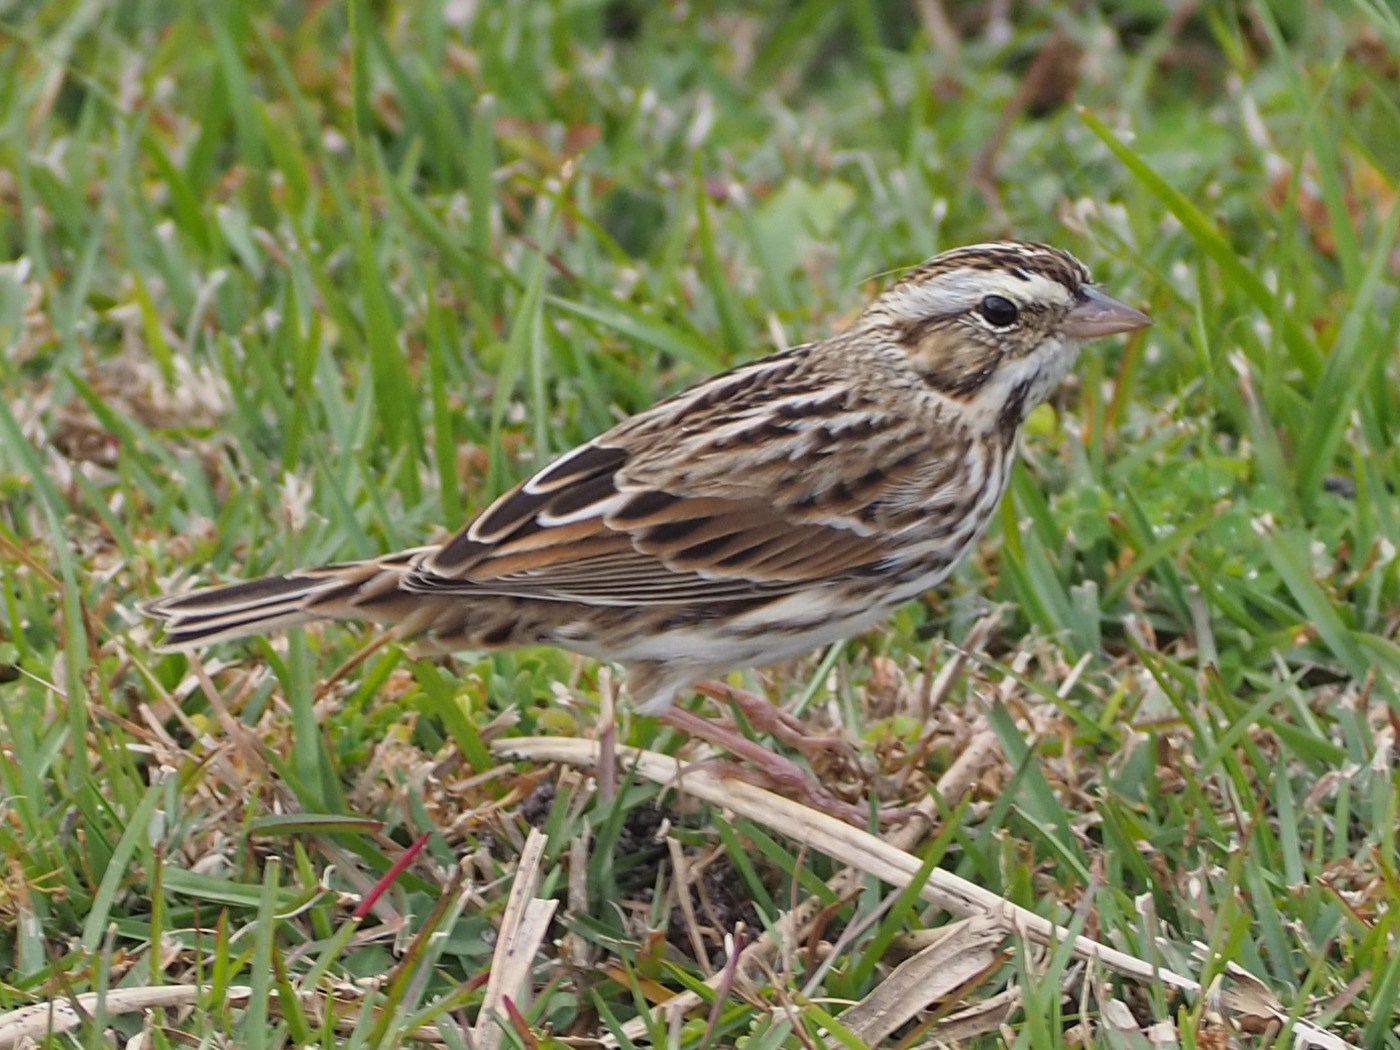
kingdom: Animalia
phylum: Chordata
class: Aves
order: Passeriformes
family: Passerellidae
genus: Passerculus
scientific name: Passerculus sandwichensis
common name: Savannah sparrow
